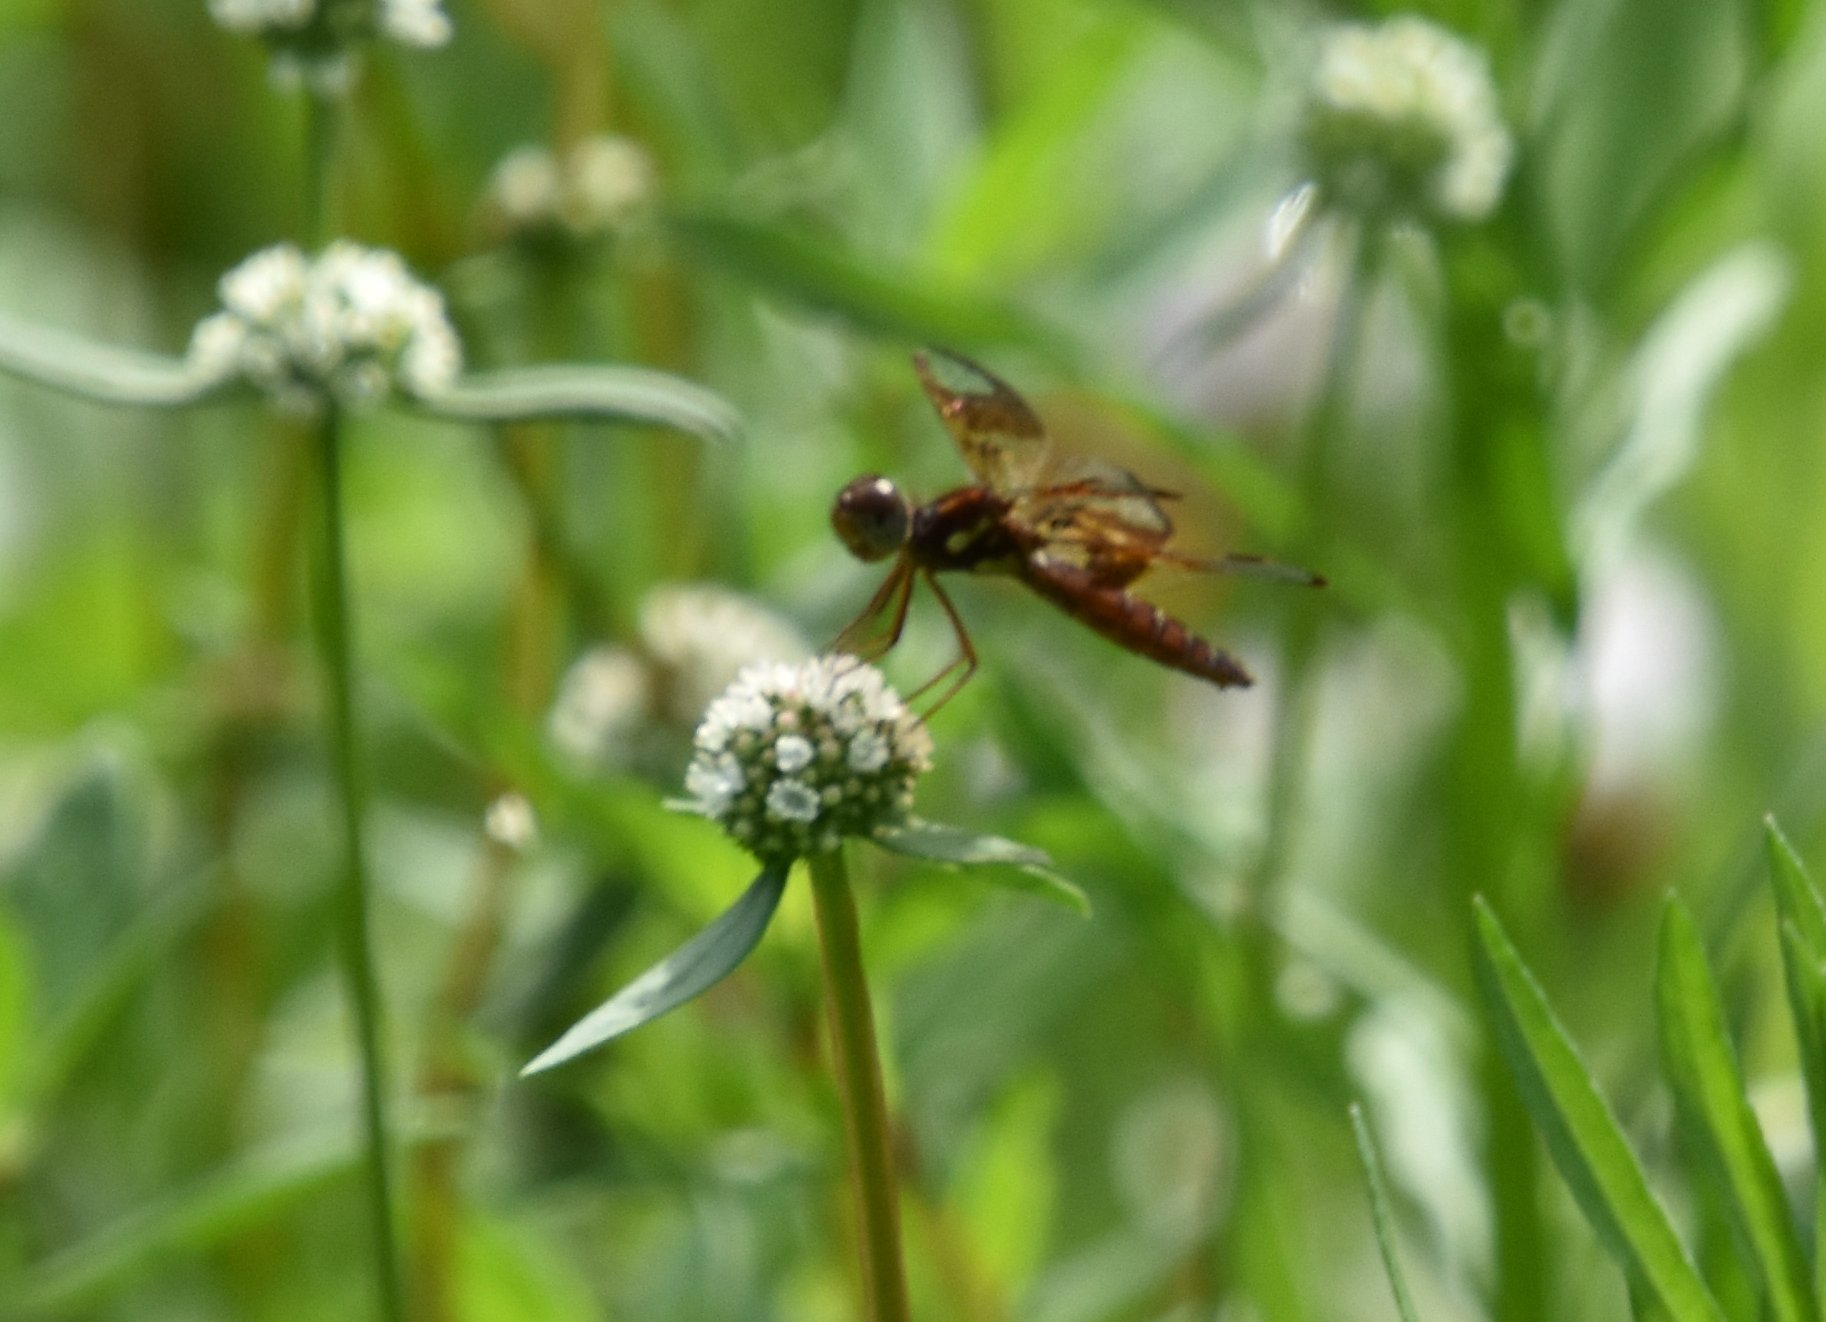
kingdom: Animalia
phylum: Arthropoda
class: Insecta
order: Odonata
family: Libellulidae
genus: Perithemis
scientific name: Perithemis tenera
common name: Eastern amberwing
